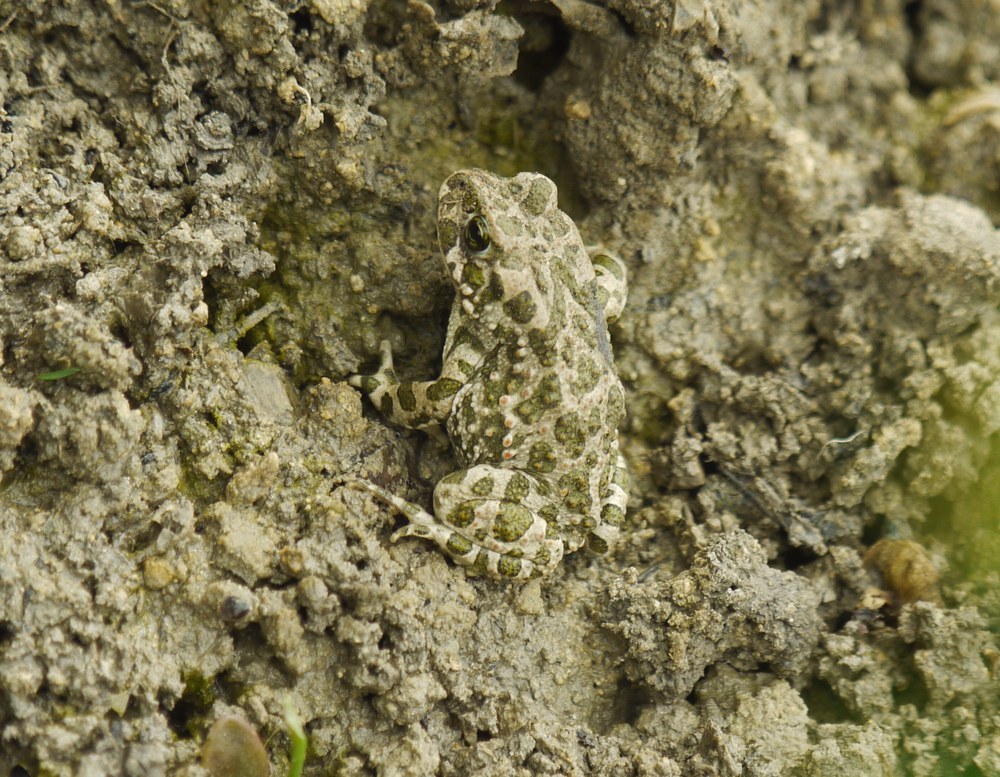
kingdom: Animalia
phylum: Chordata
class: Amphibia
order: Anura
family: Bufonidae
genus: Bufotes
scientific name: Bufotes viridis
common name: European green toad
